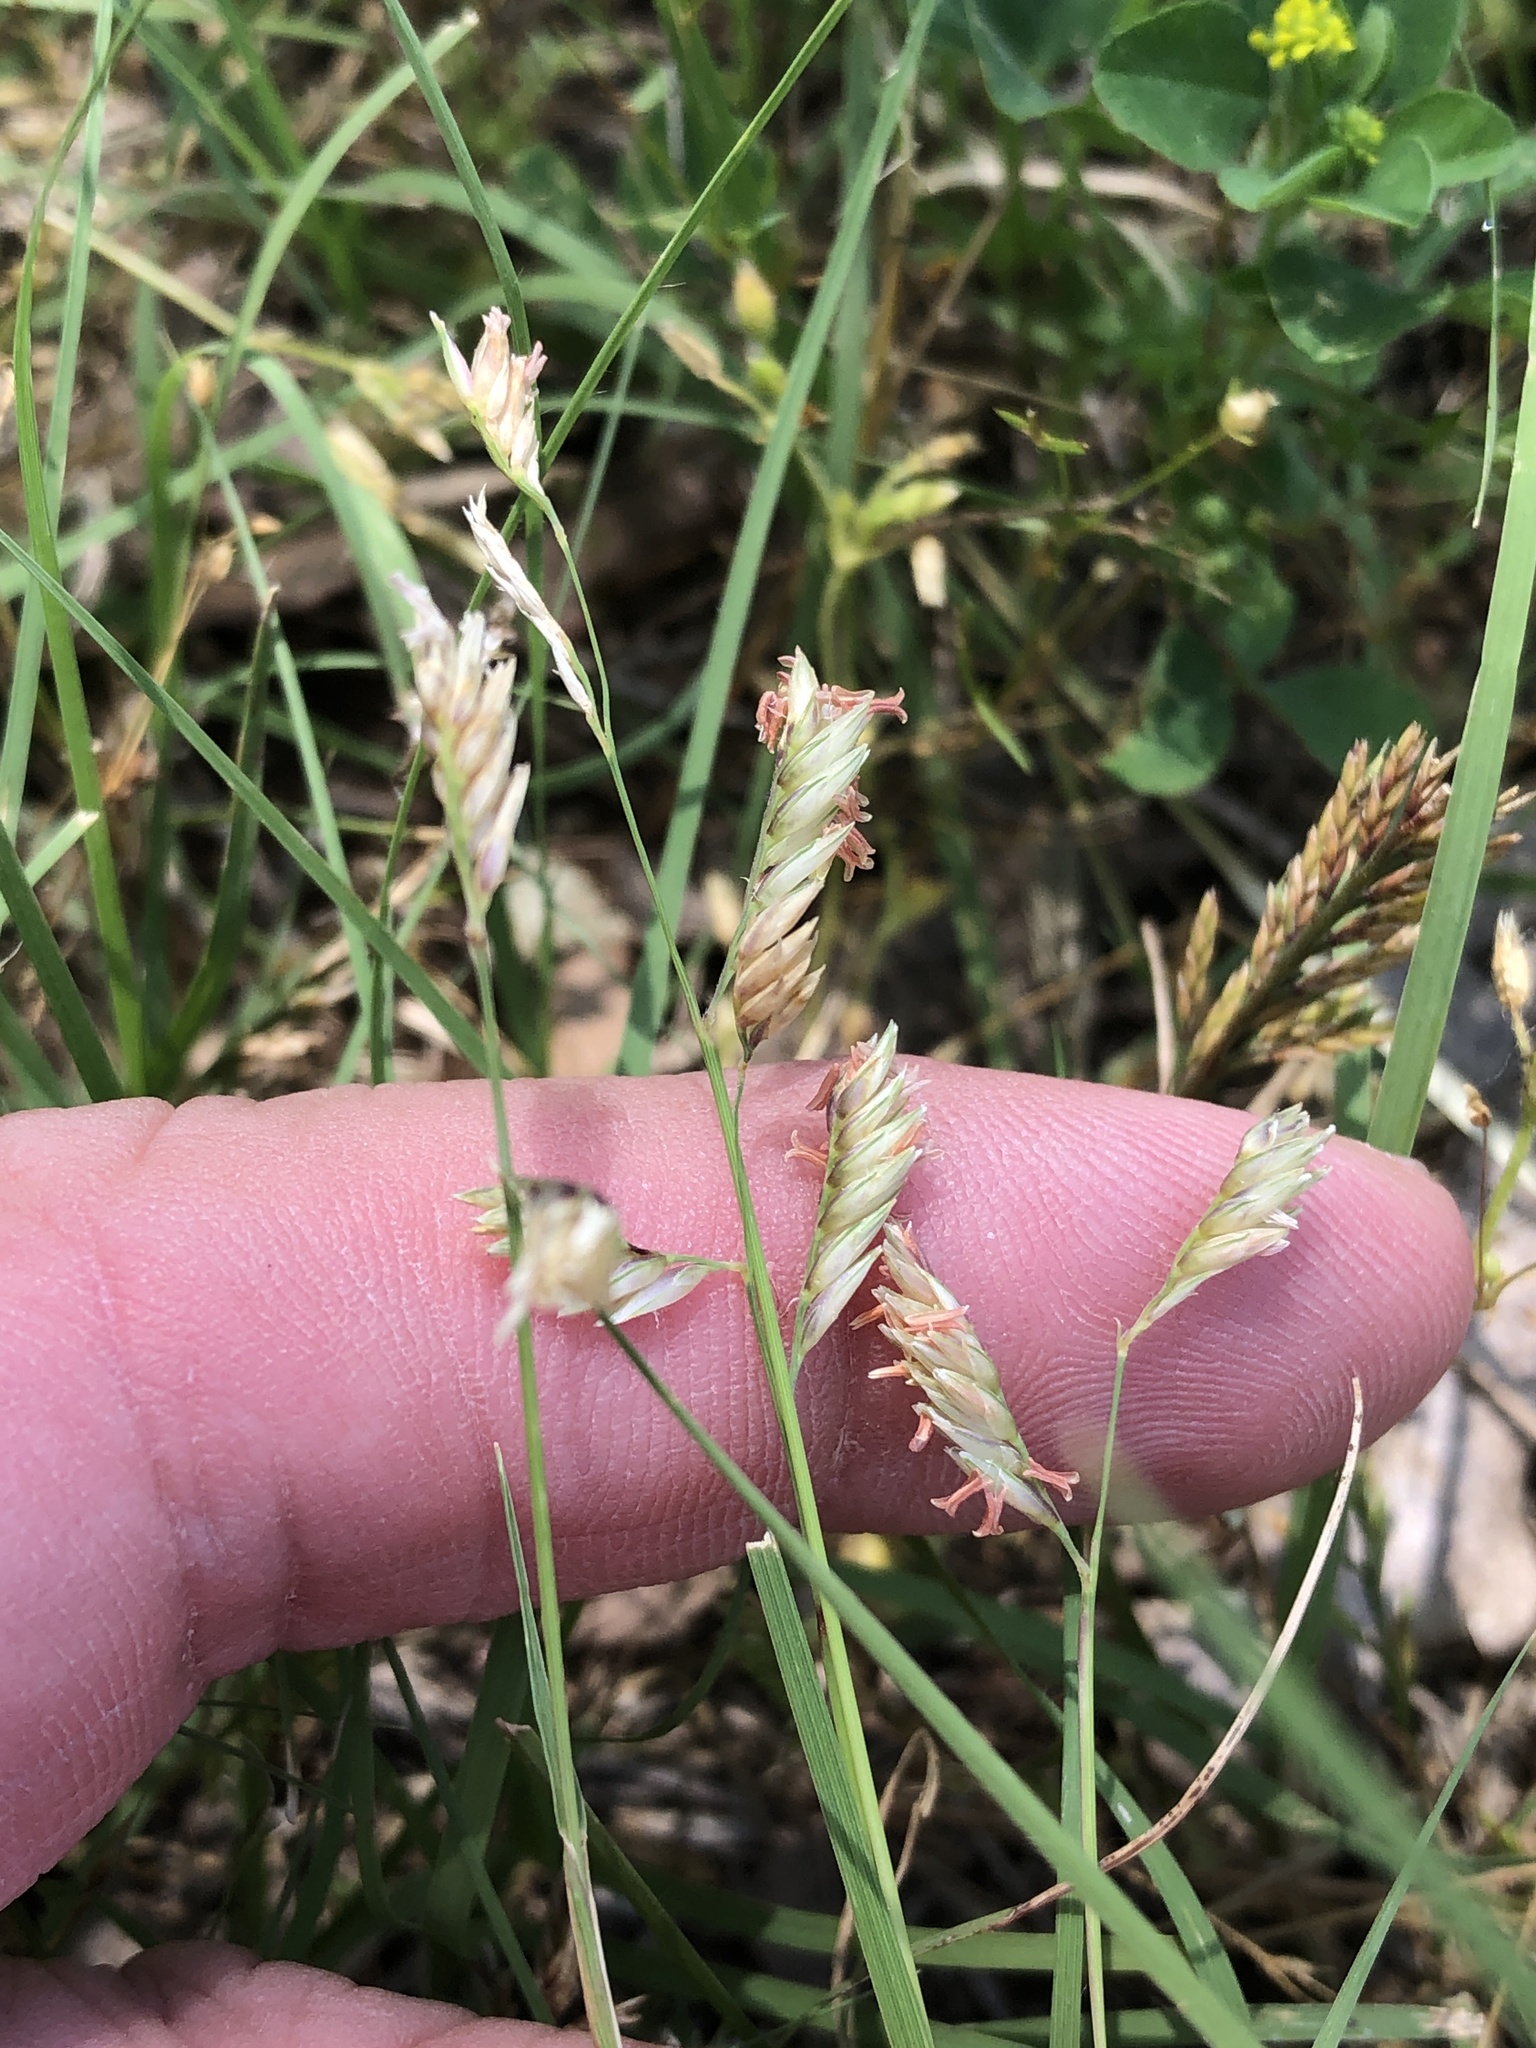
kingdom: Plantae
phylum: Tracheophyta
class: Liliopsida
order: Poales
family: Poaceae
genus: Bouteloua
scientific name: Bouteloua dactyloides
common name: Buffalo grass
